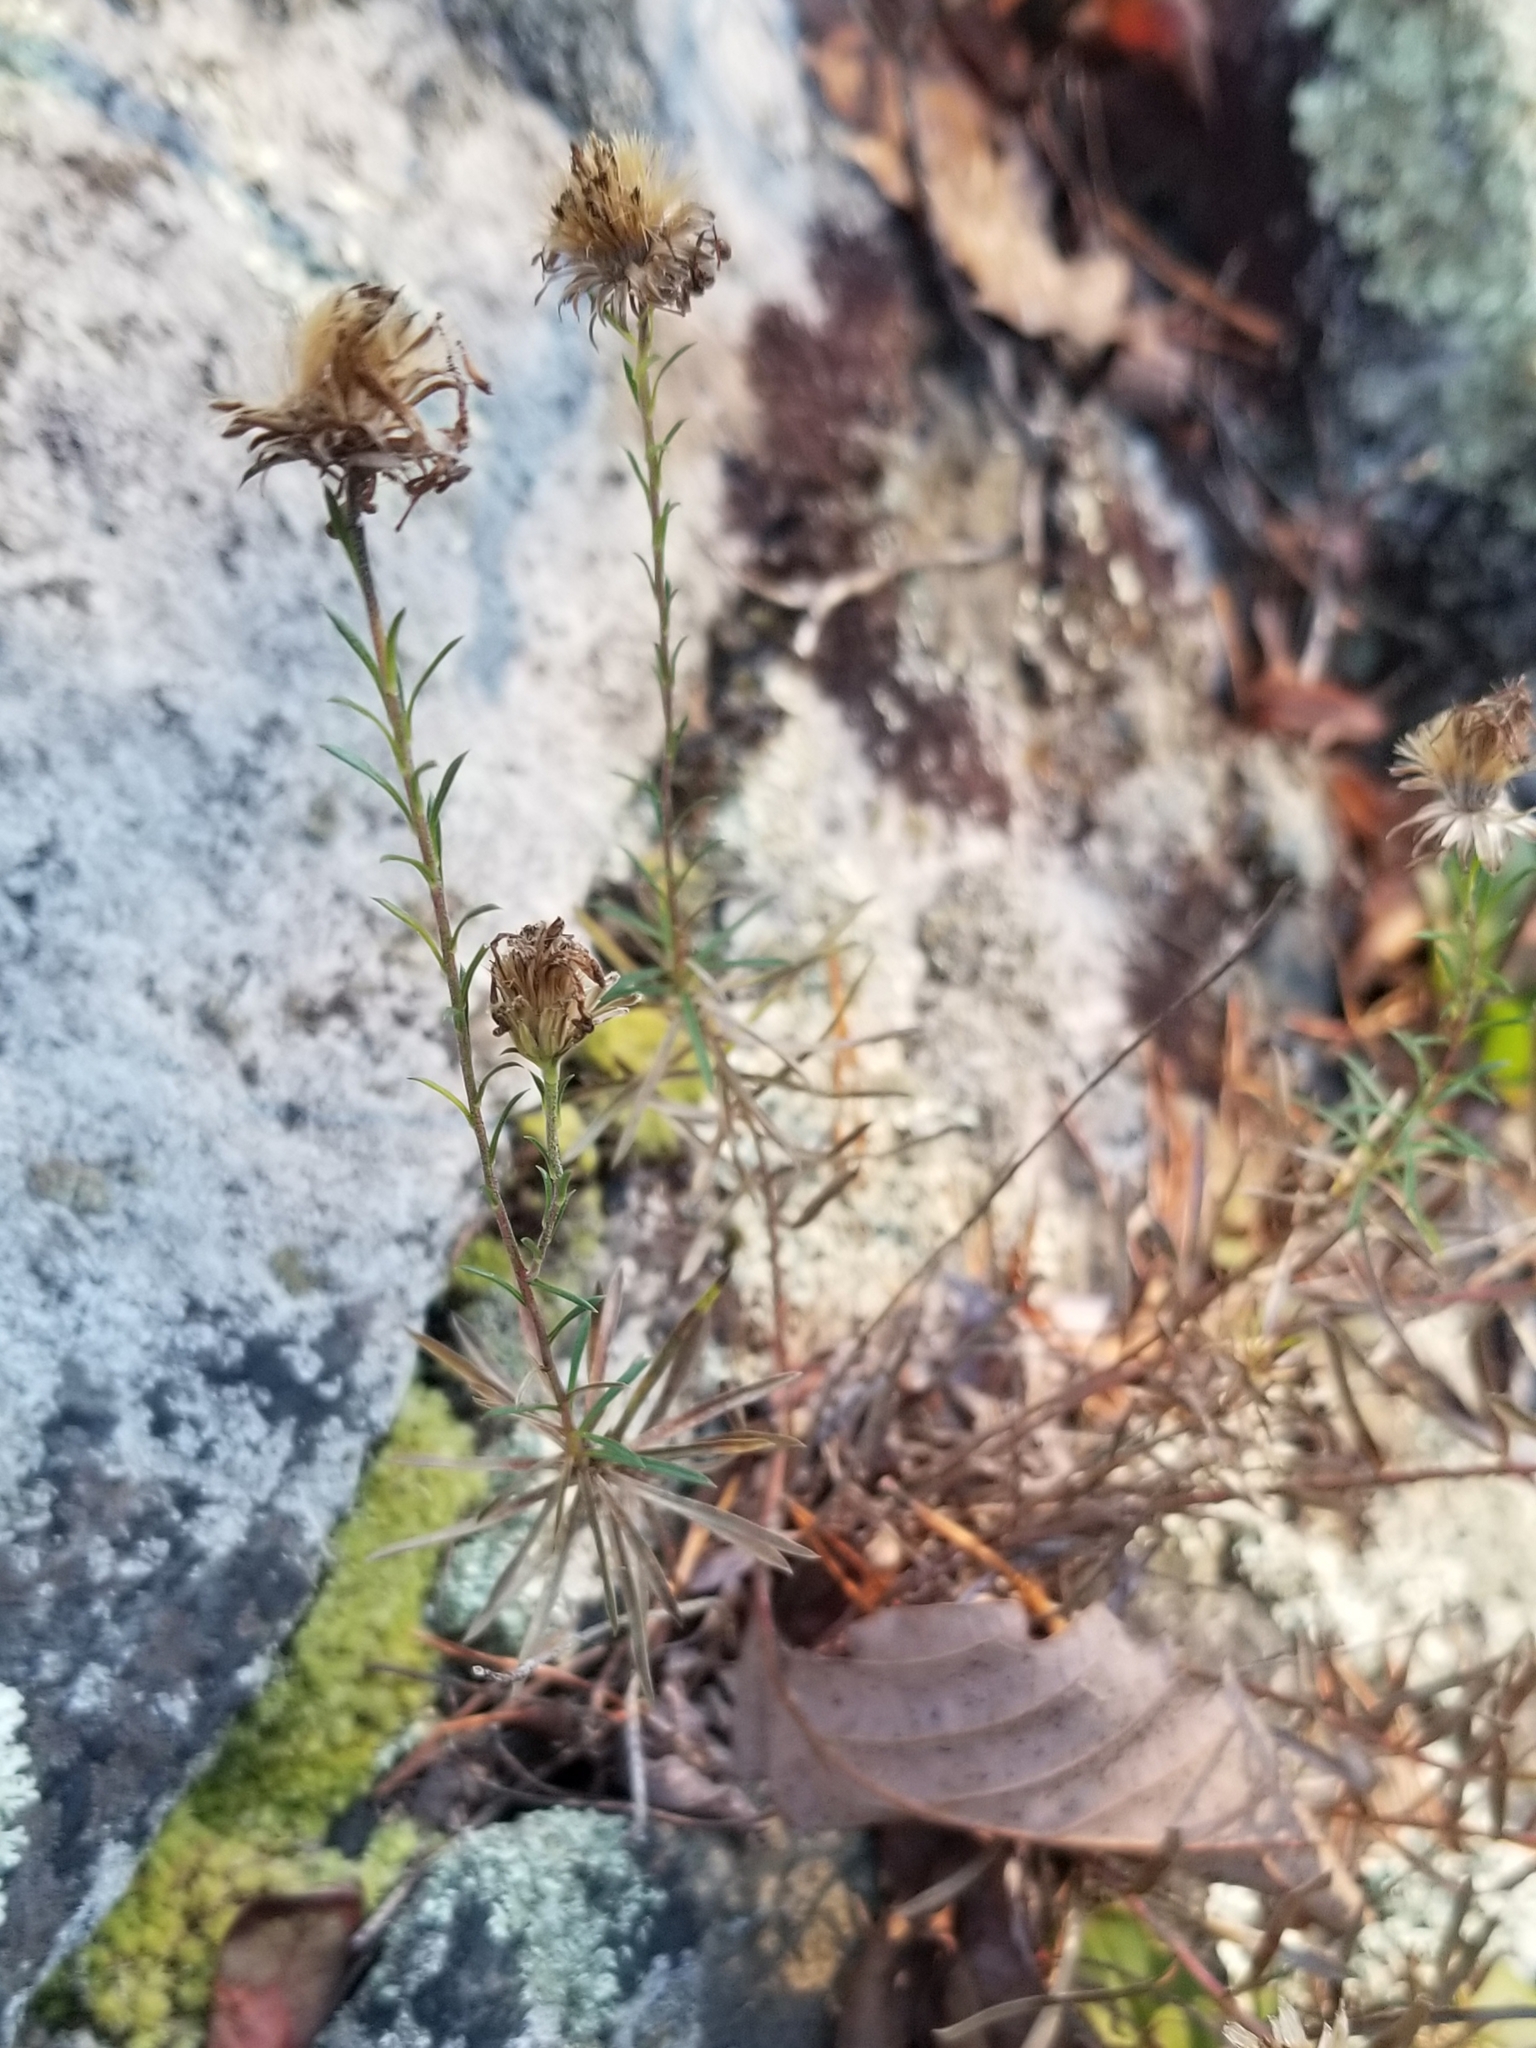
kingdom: Plantae
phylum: Tracheophyta
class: Magnoliopsida
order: Asterales
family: Asteraceae
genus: Ionactis
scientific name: Ionactis linariifolia
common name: Flax-leaf aster
